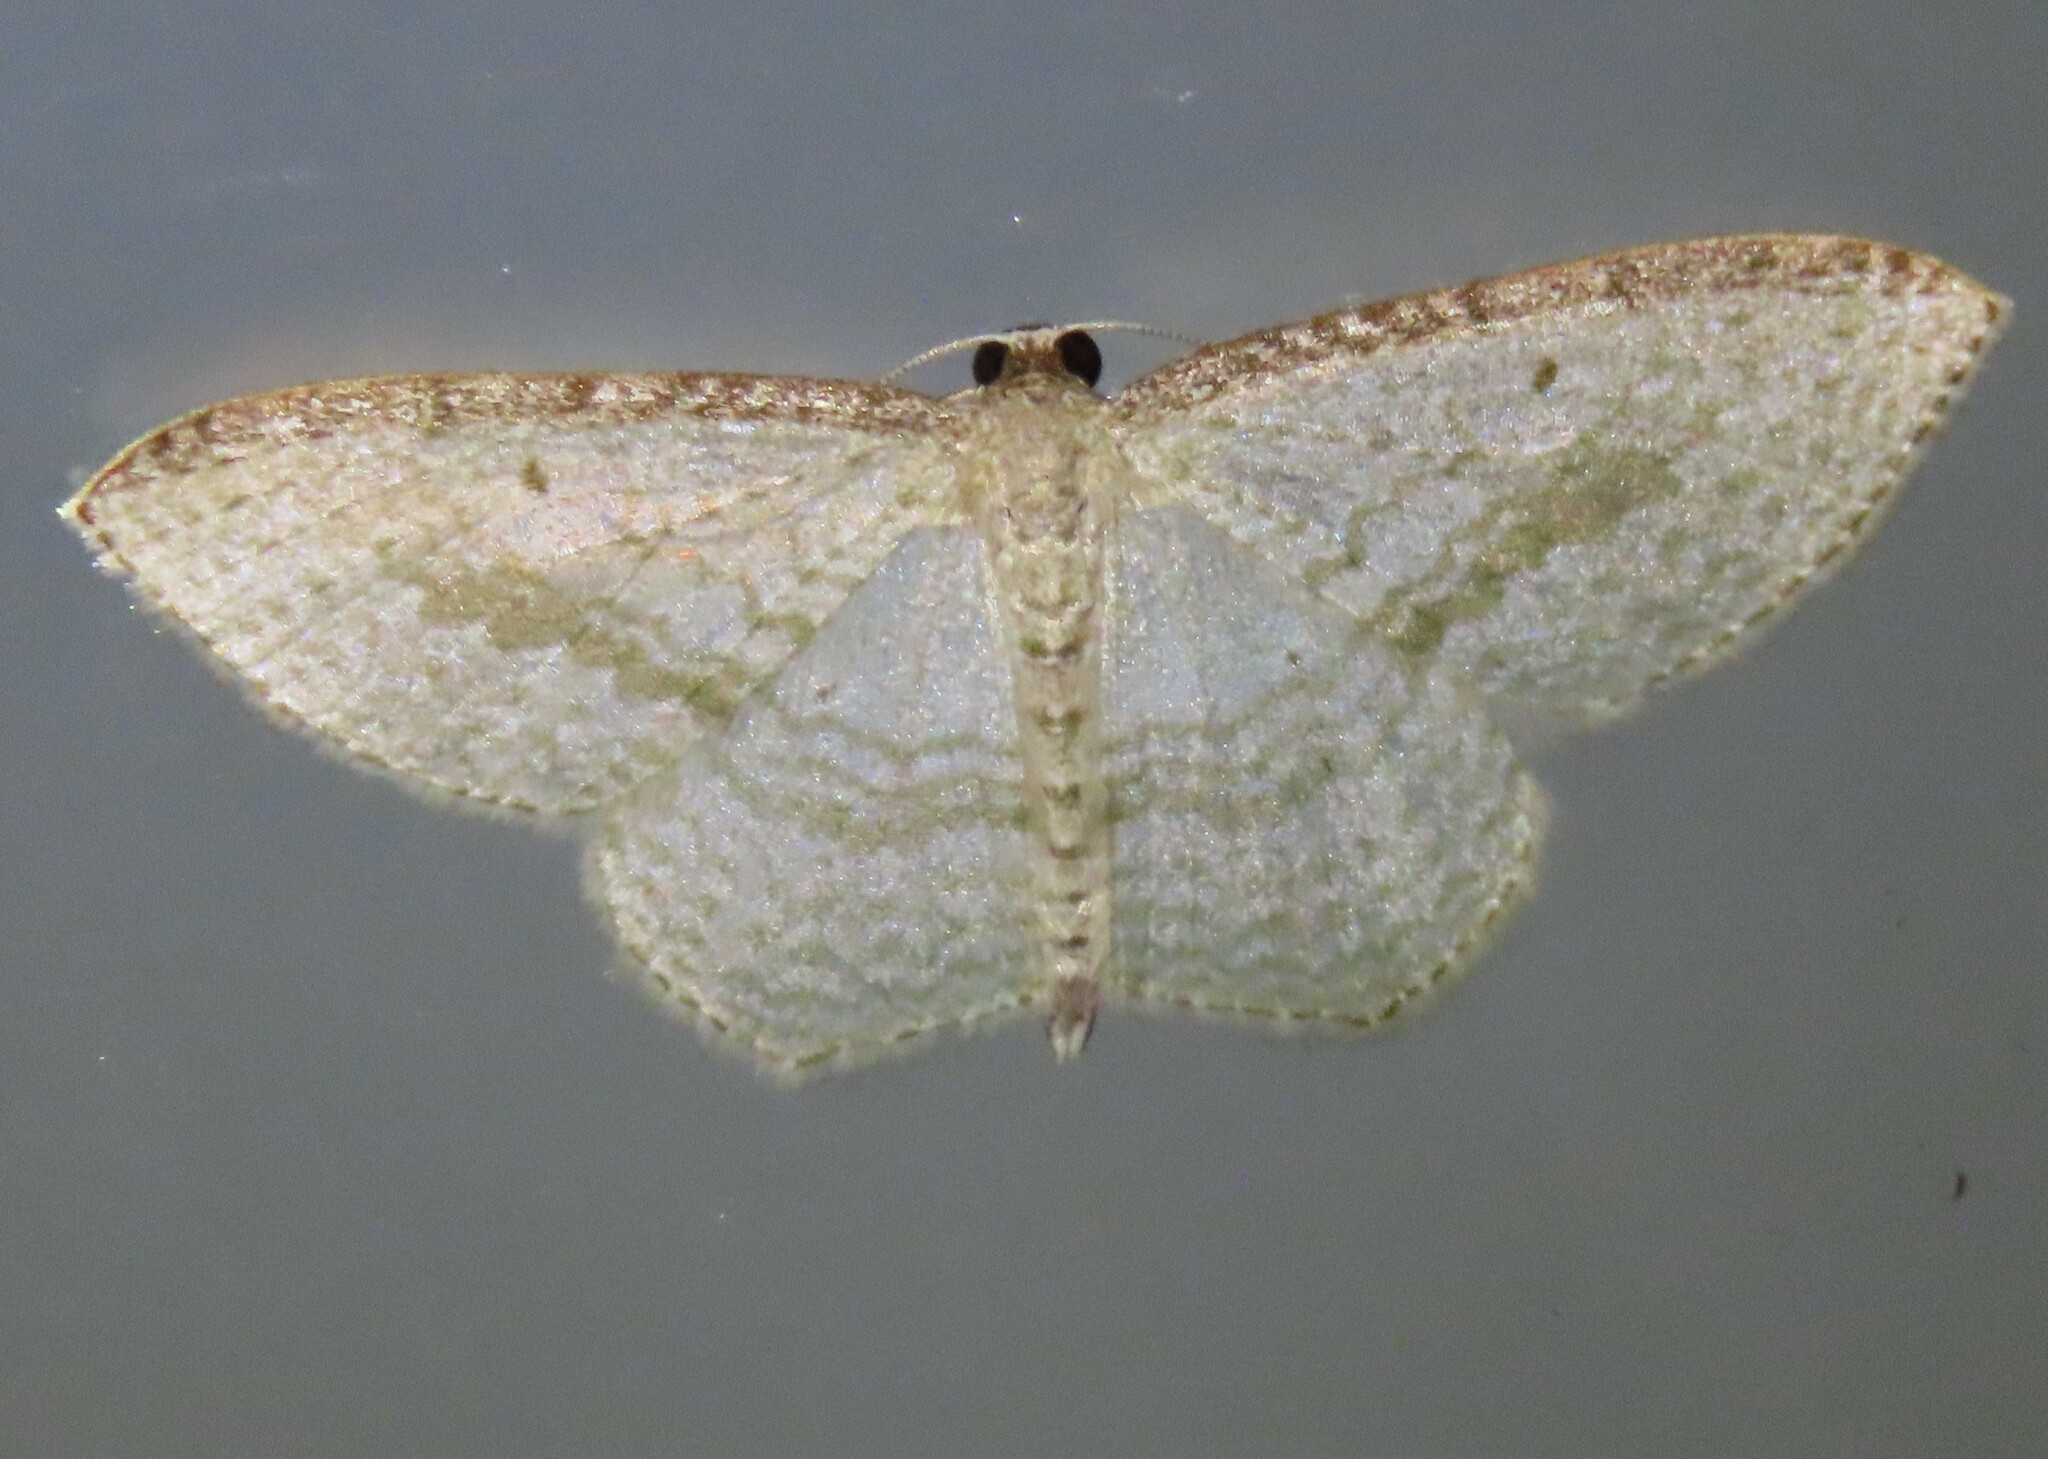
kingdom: Animalia
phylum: Arthropoda
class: Insecta
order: Lepidoptera
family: Geometridae
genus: Poecilasthena
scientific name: Poecilasthena pulchraria
